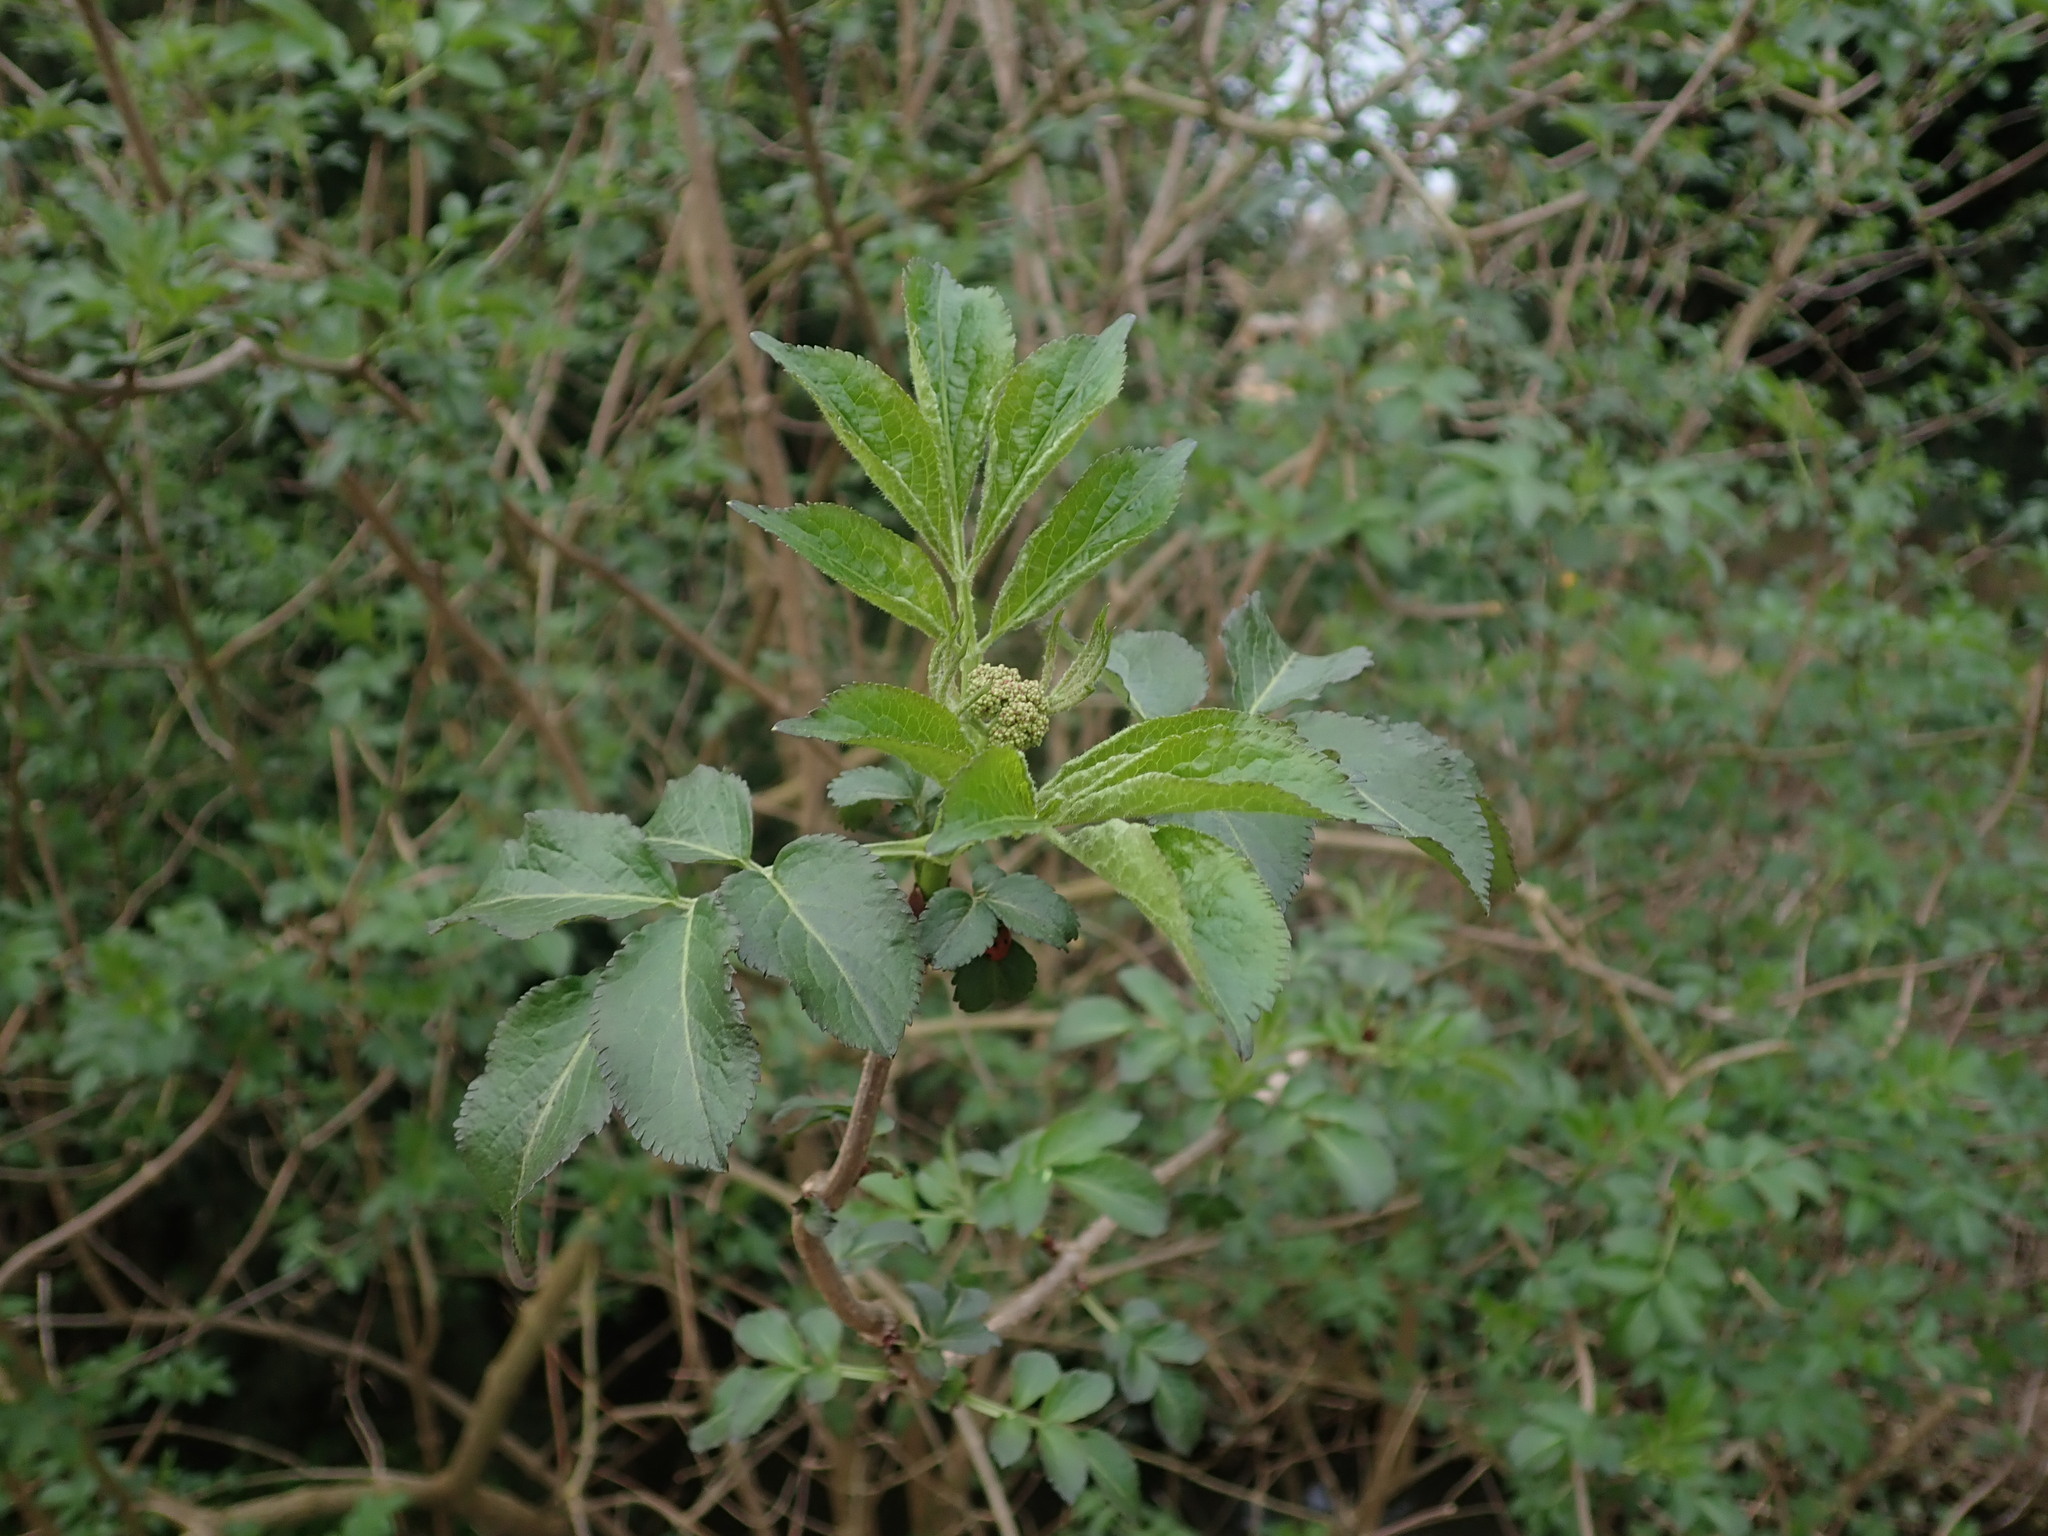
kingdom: Plantae
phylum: Tracheophyta
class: Magnoliopsida
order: Dipsacales
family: Viburnaceae
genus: Sambucus
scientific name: Sambucus nigra
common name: Elder
